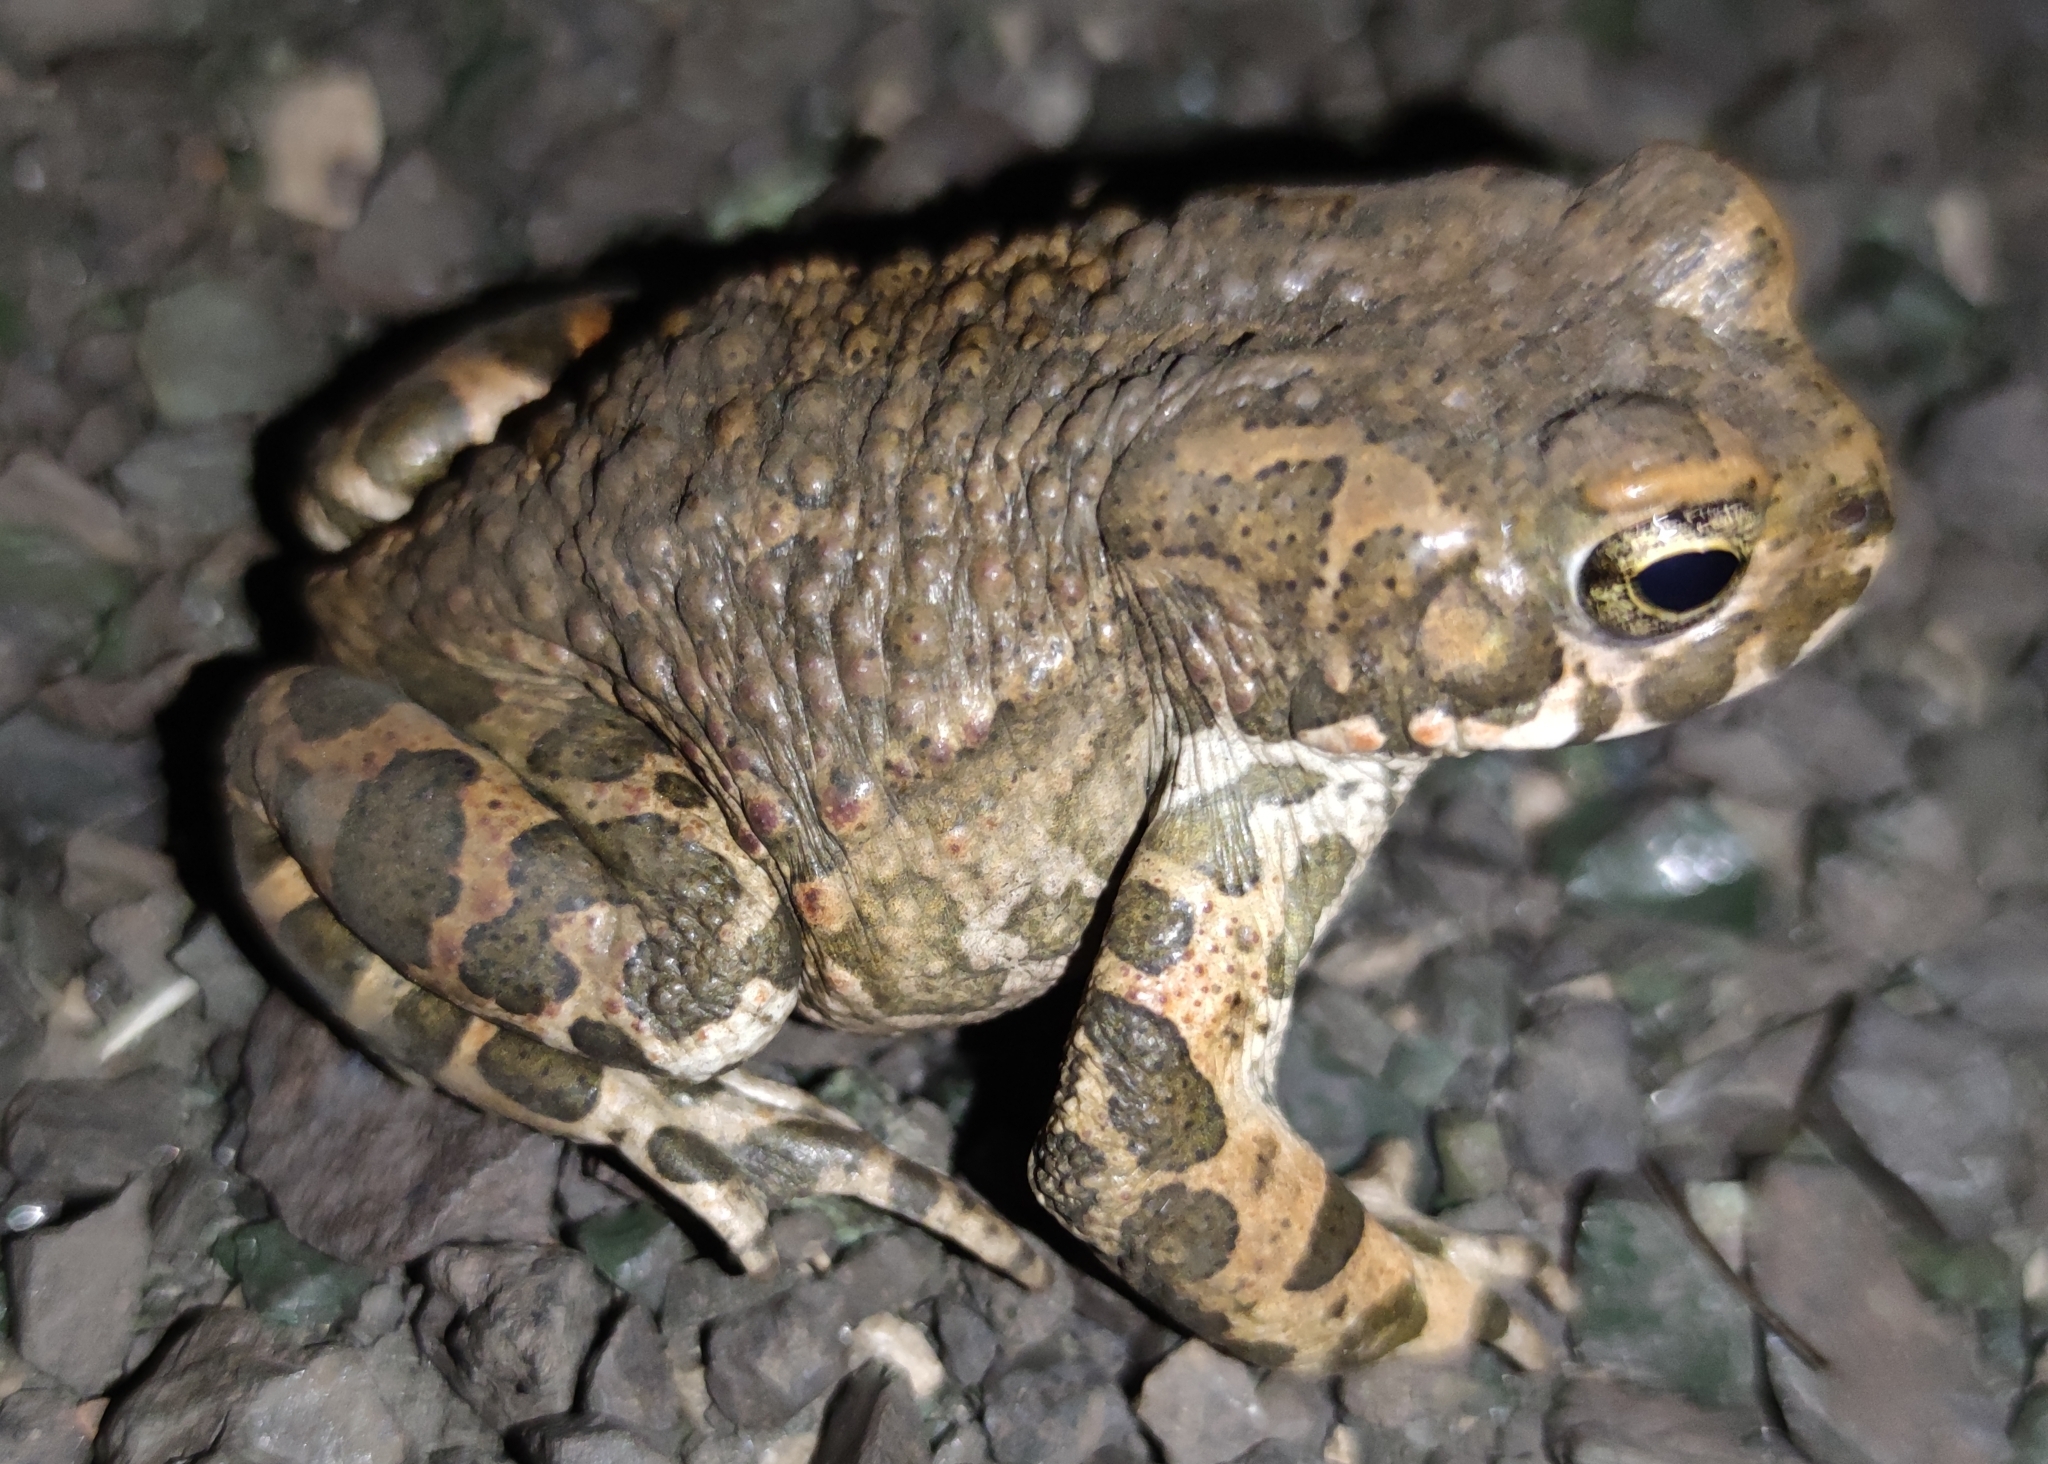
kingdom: Animalia
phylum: Chordata
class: Amphibia
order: Anura
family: Bufonidae
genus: Bufotes
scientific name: Bufotes viridis
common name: European green toad
